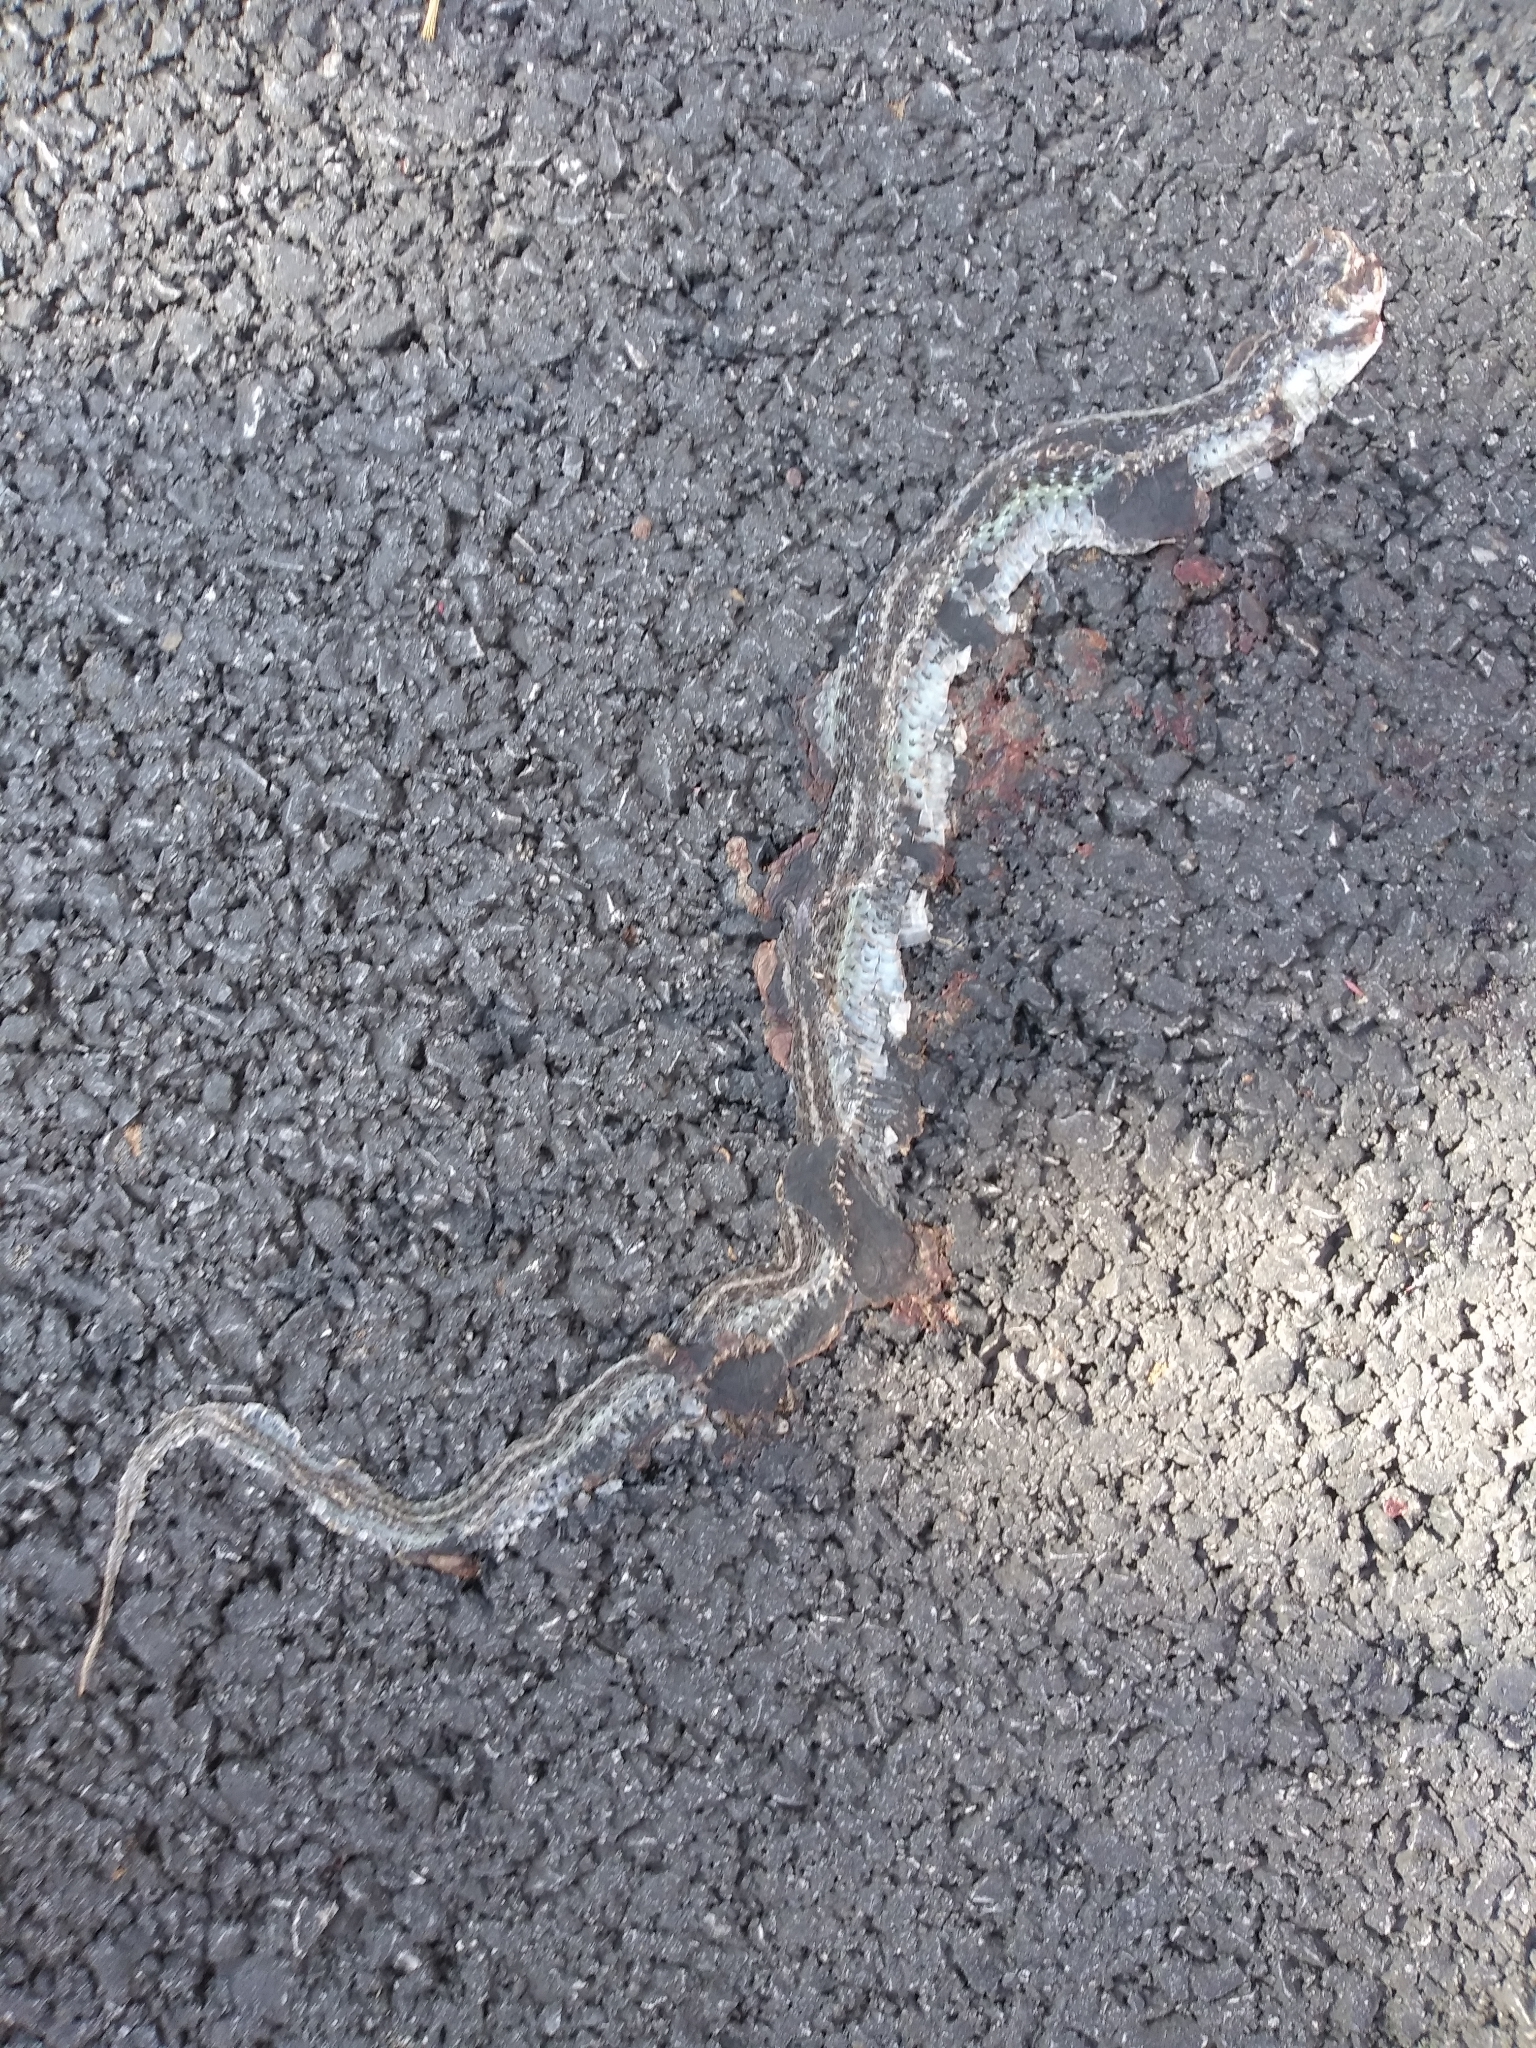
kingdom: Animalia
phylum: Chordata
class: Squamata
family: Colubridae
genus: Thamnophis
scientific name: Thamnophis sirtalis
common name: Common garter snake
